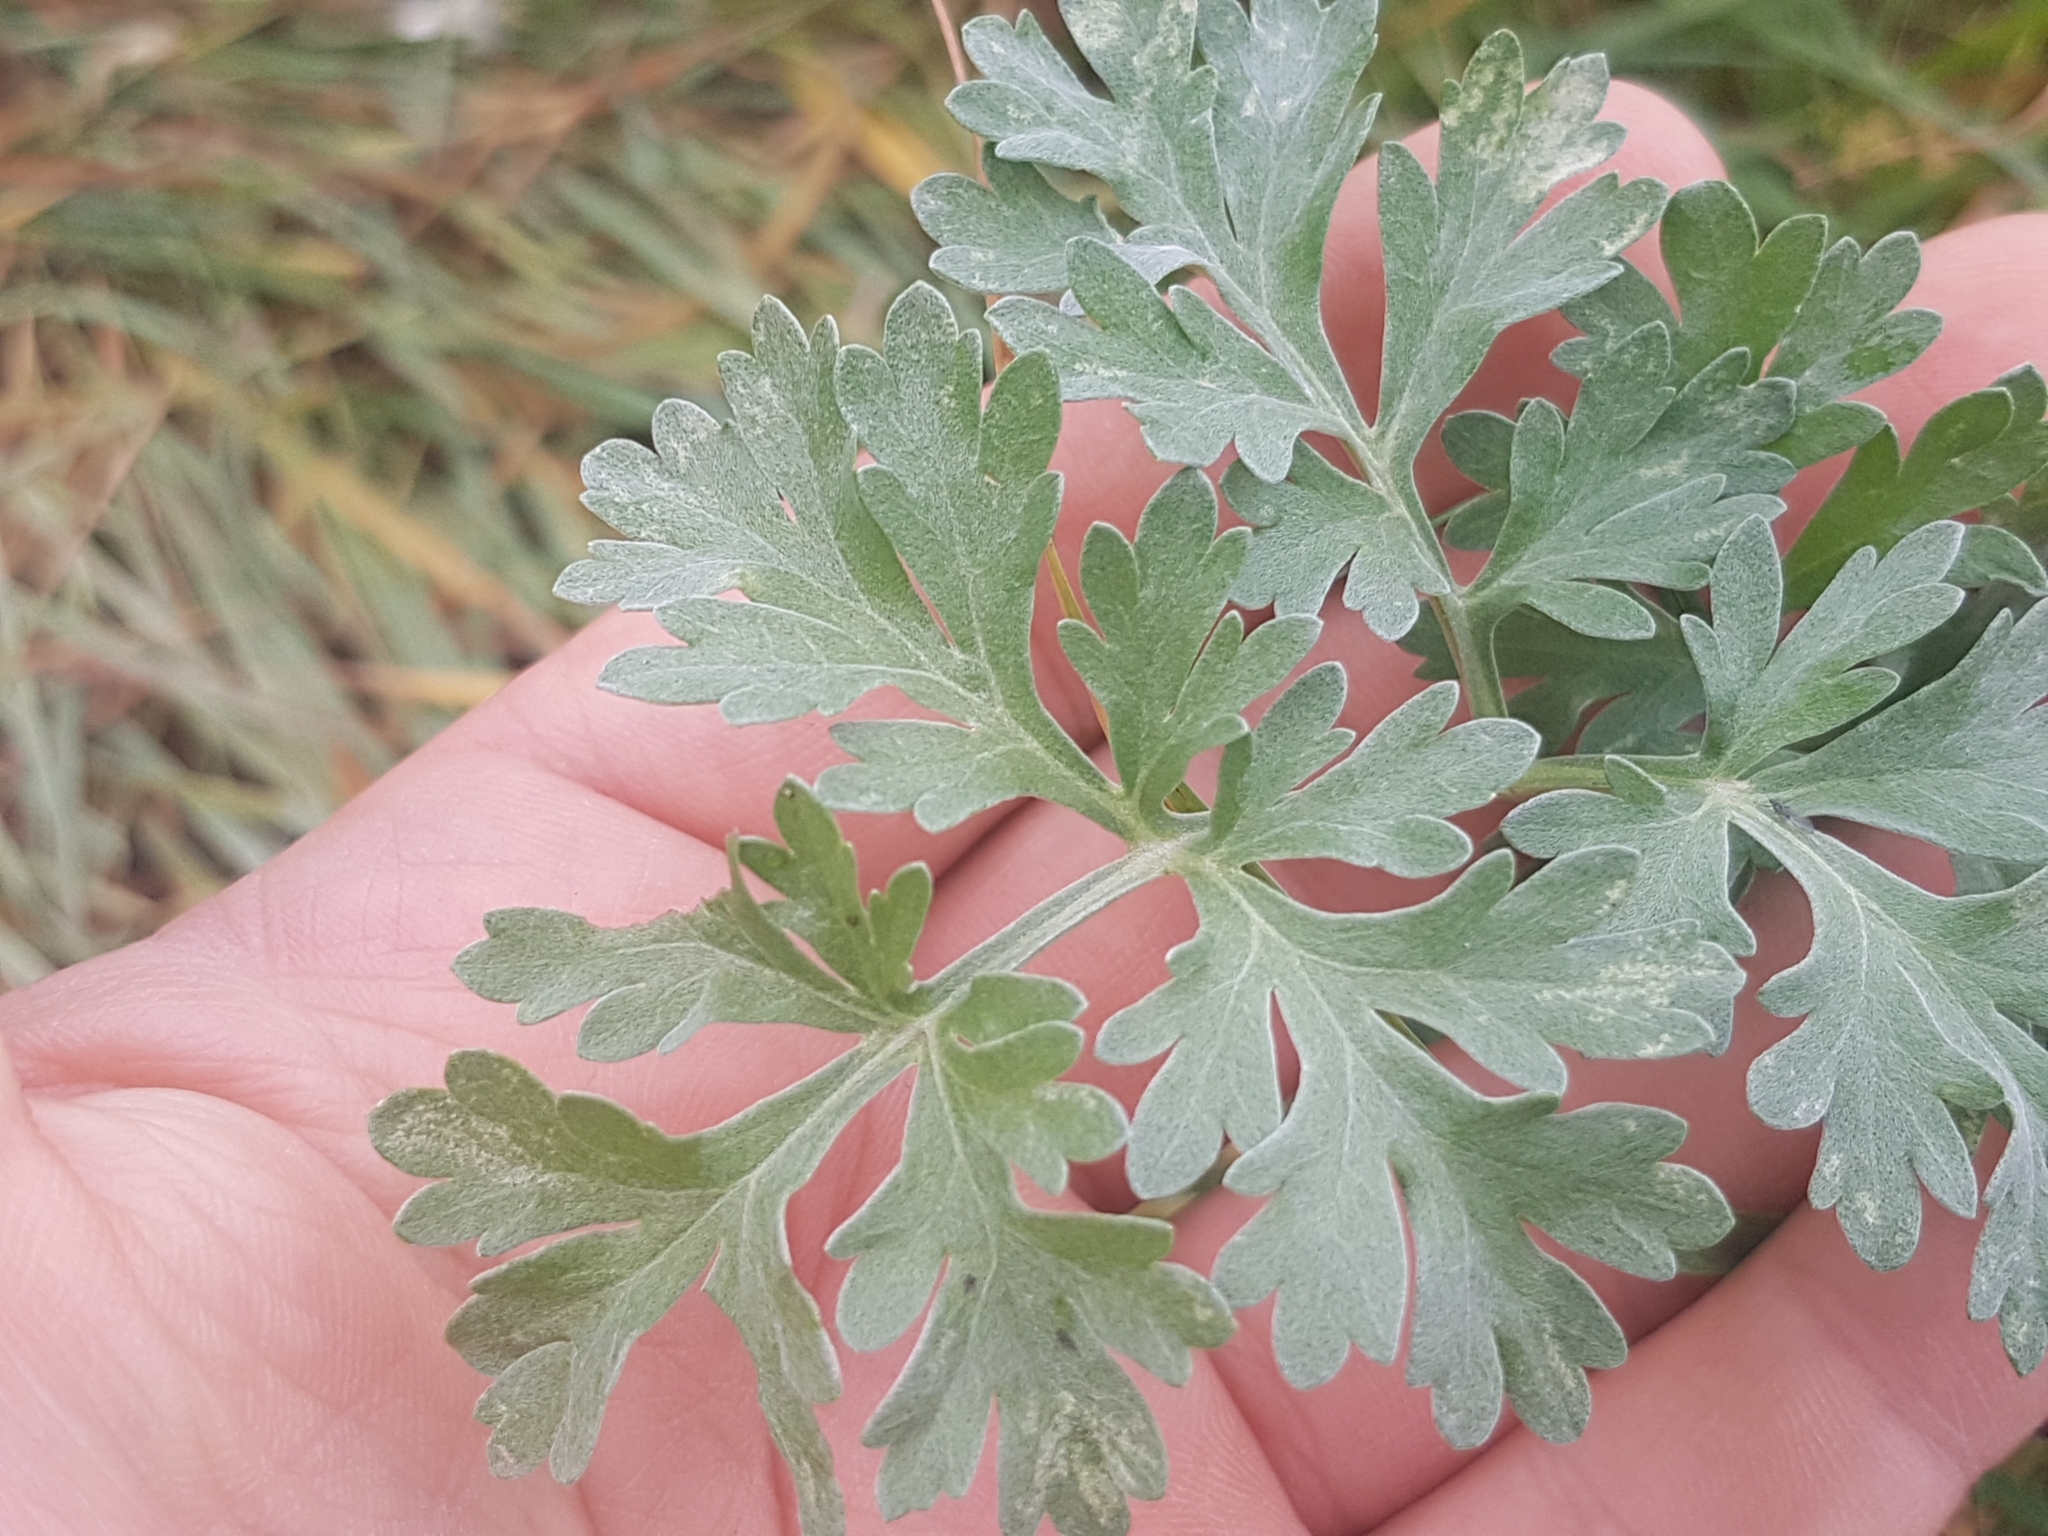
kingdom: Plantae
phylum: Tracheophyta
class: Magnoliopsida
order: Asterales
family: Asteraceae
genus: Artemisia
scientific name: Artemisia absinthium
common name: Wormwood
